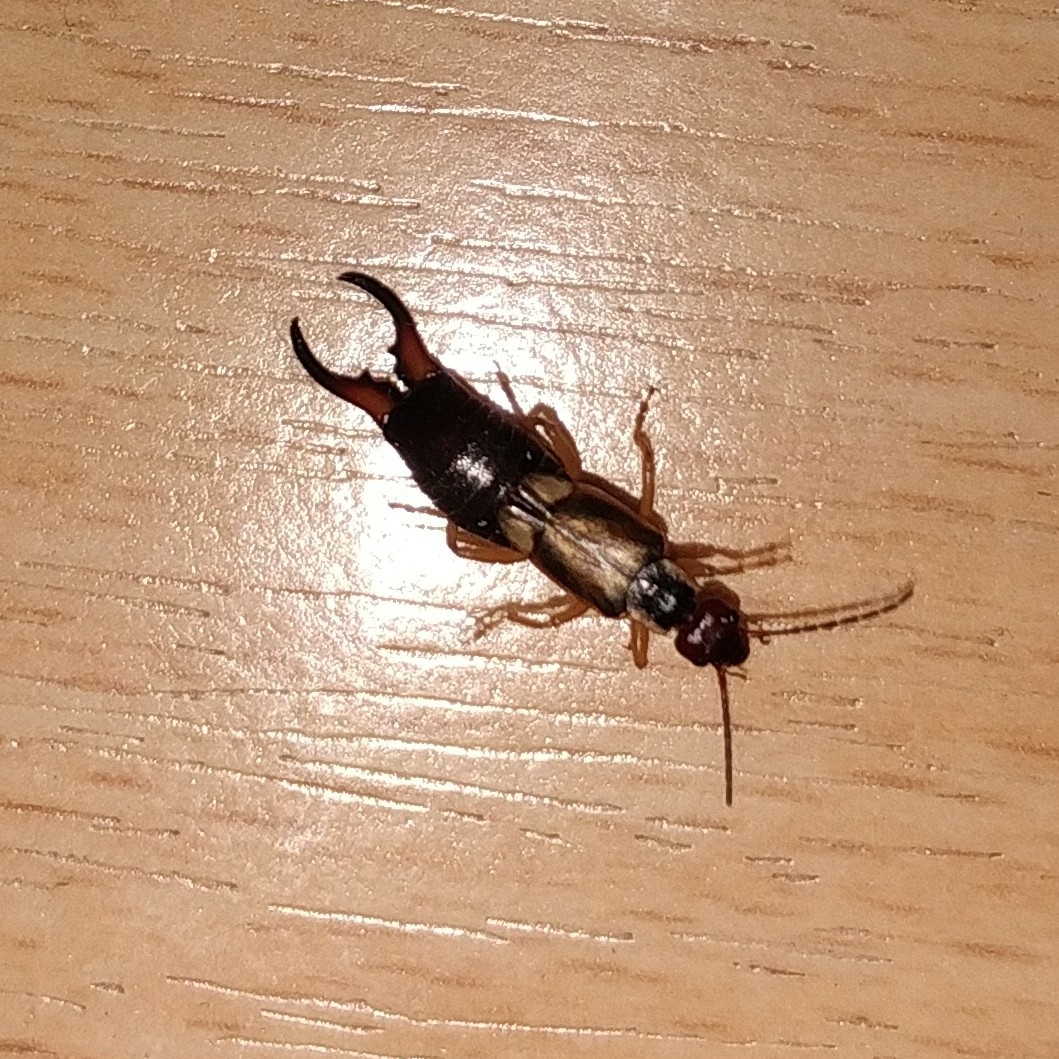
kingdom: Animalia
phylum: Arthropoda
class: Insecta
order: Dermaptera
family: Forficulidae
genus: Forficula
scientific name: Forficula
